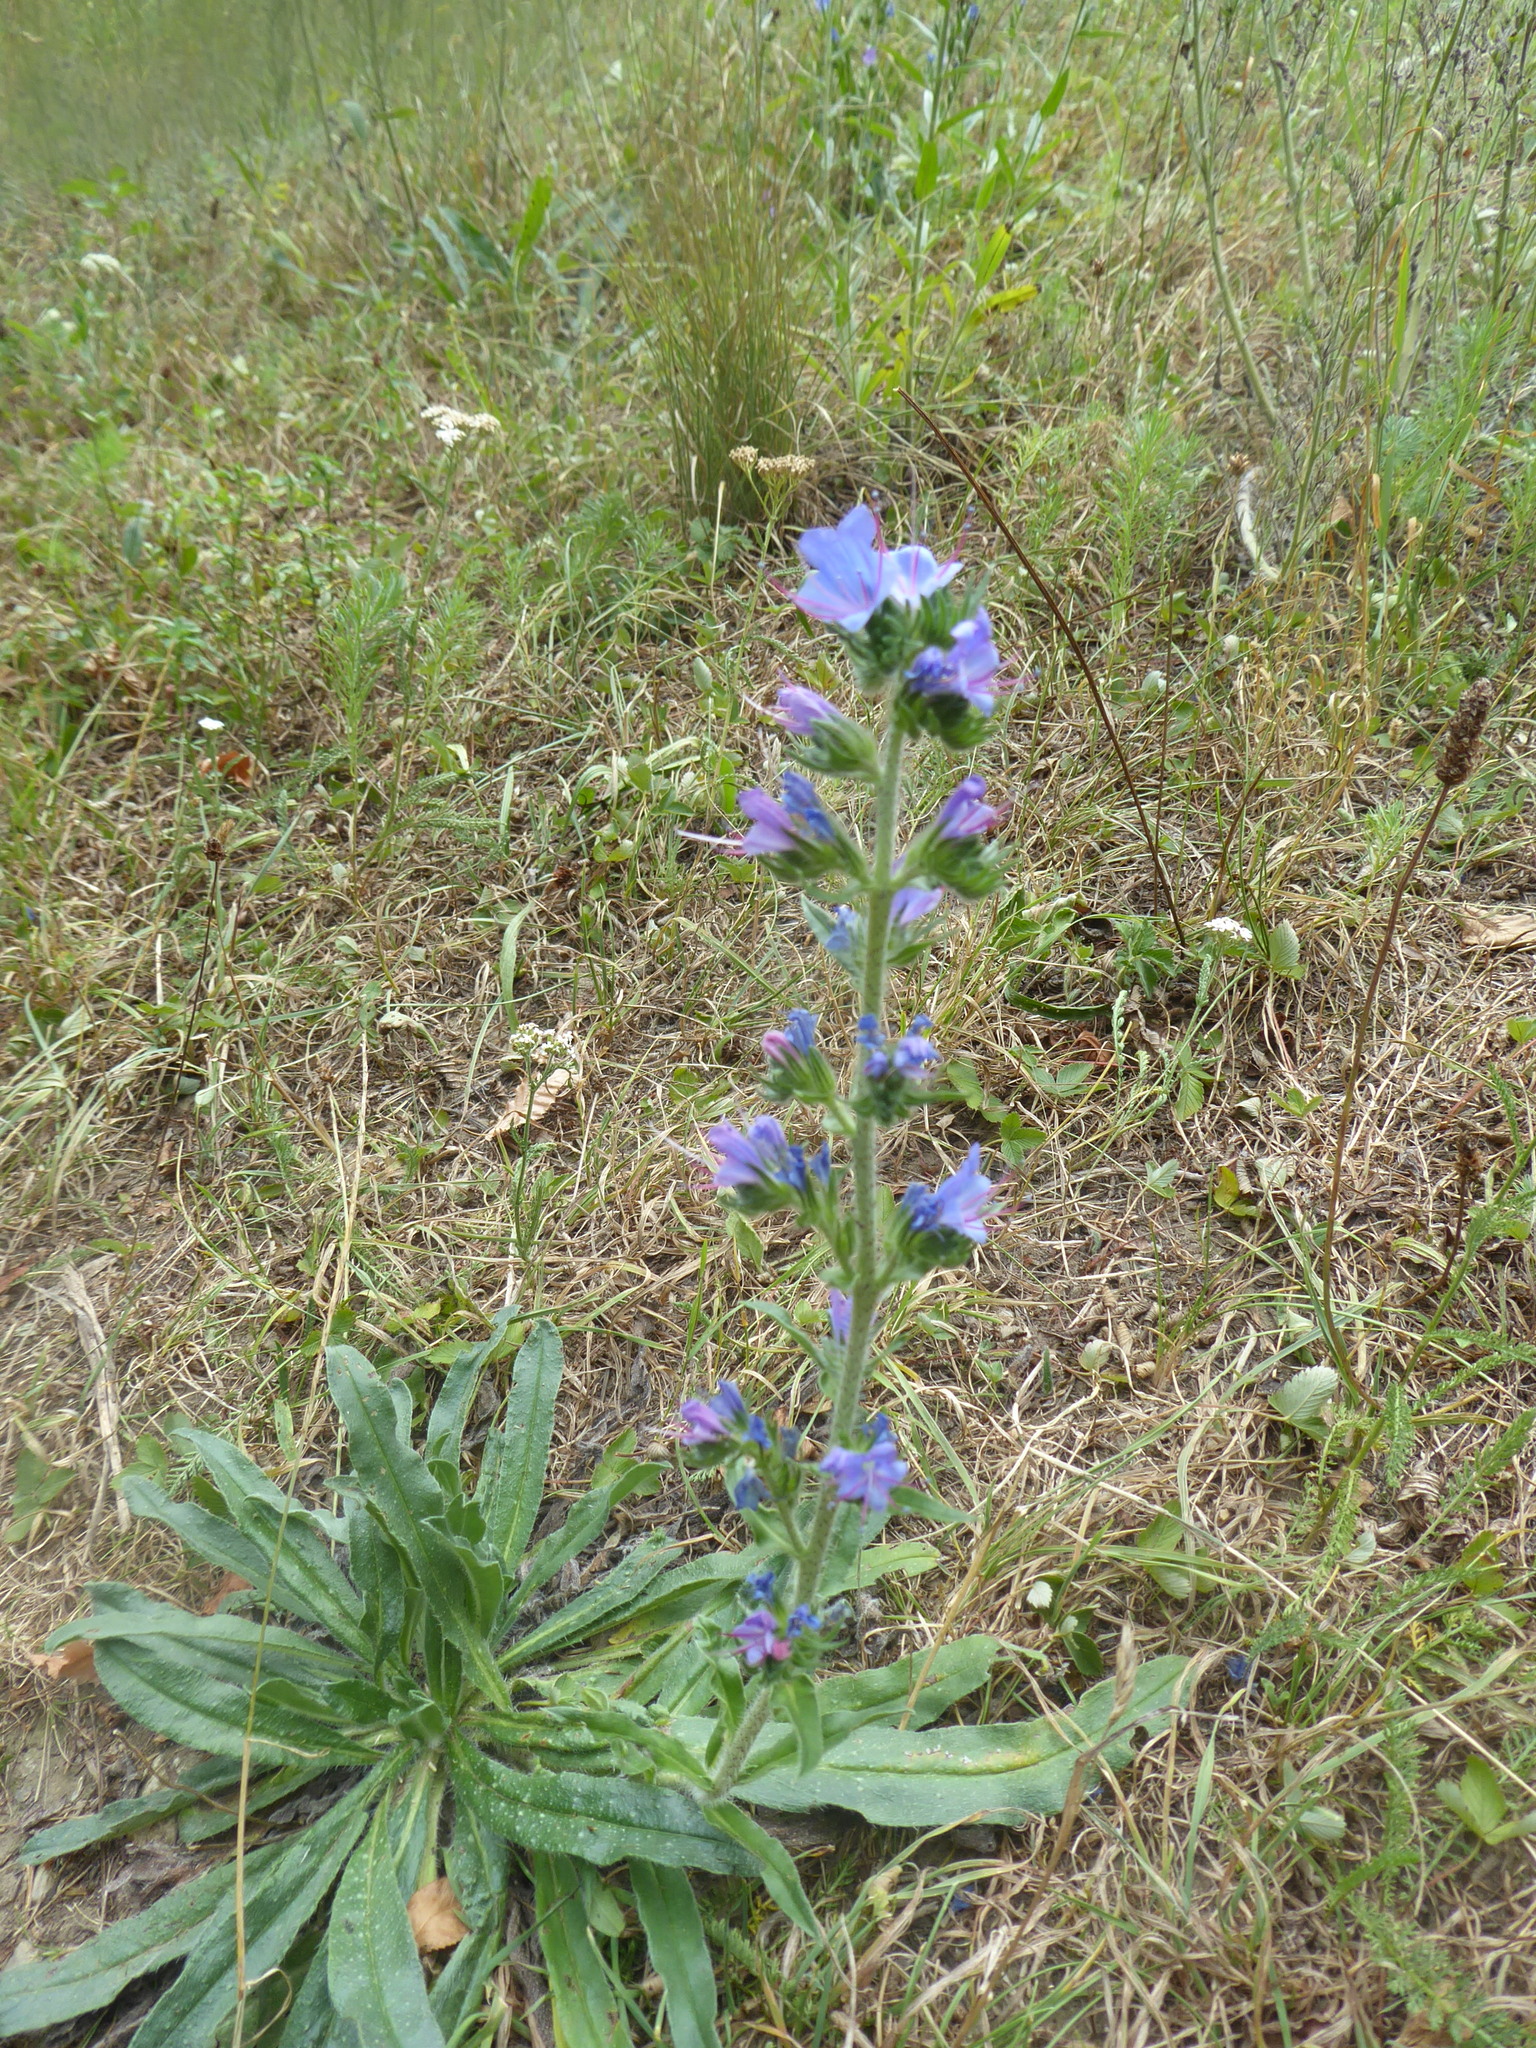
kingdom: Plantae
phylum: Tracheophyta
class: Magnoliopsida
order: Boraginales
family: Boraginaceae
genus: Echium
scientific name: Echium vulgare
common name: Common viper's bugloss
